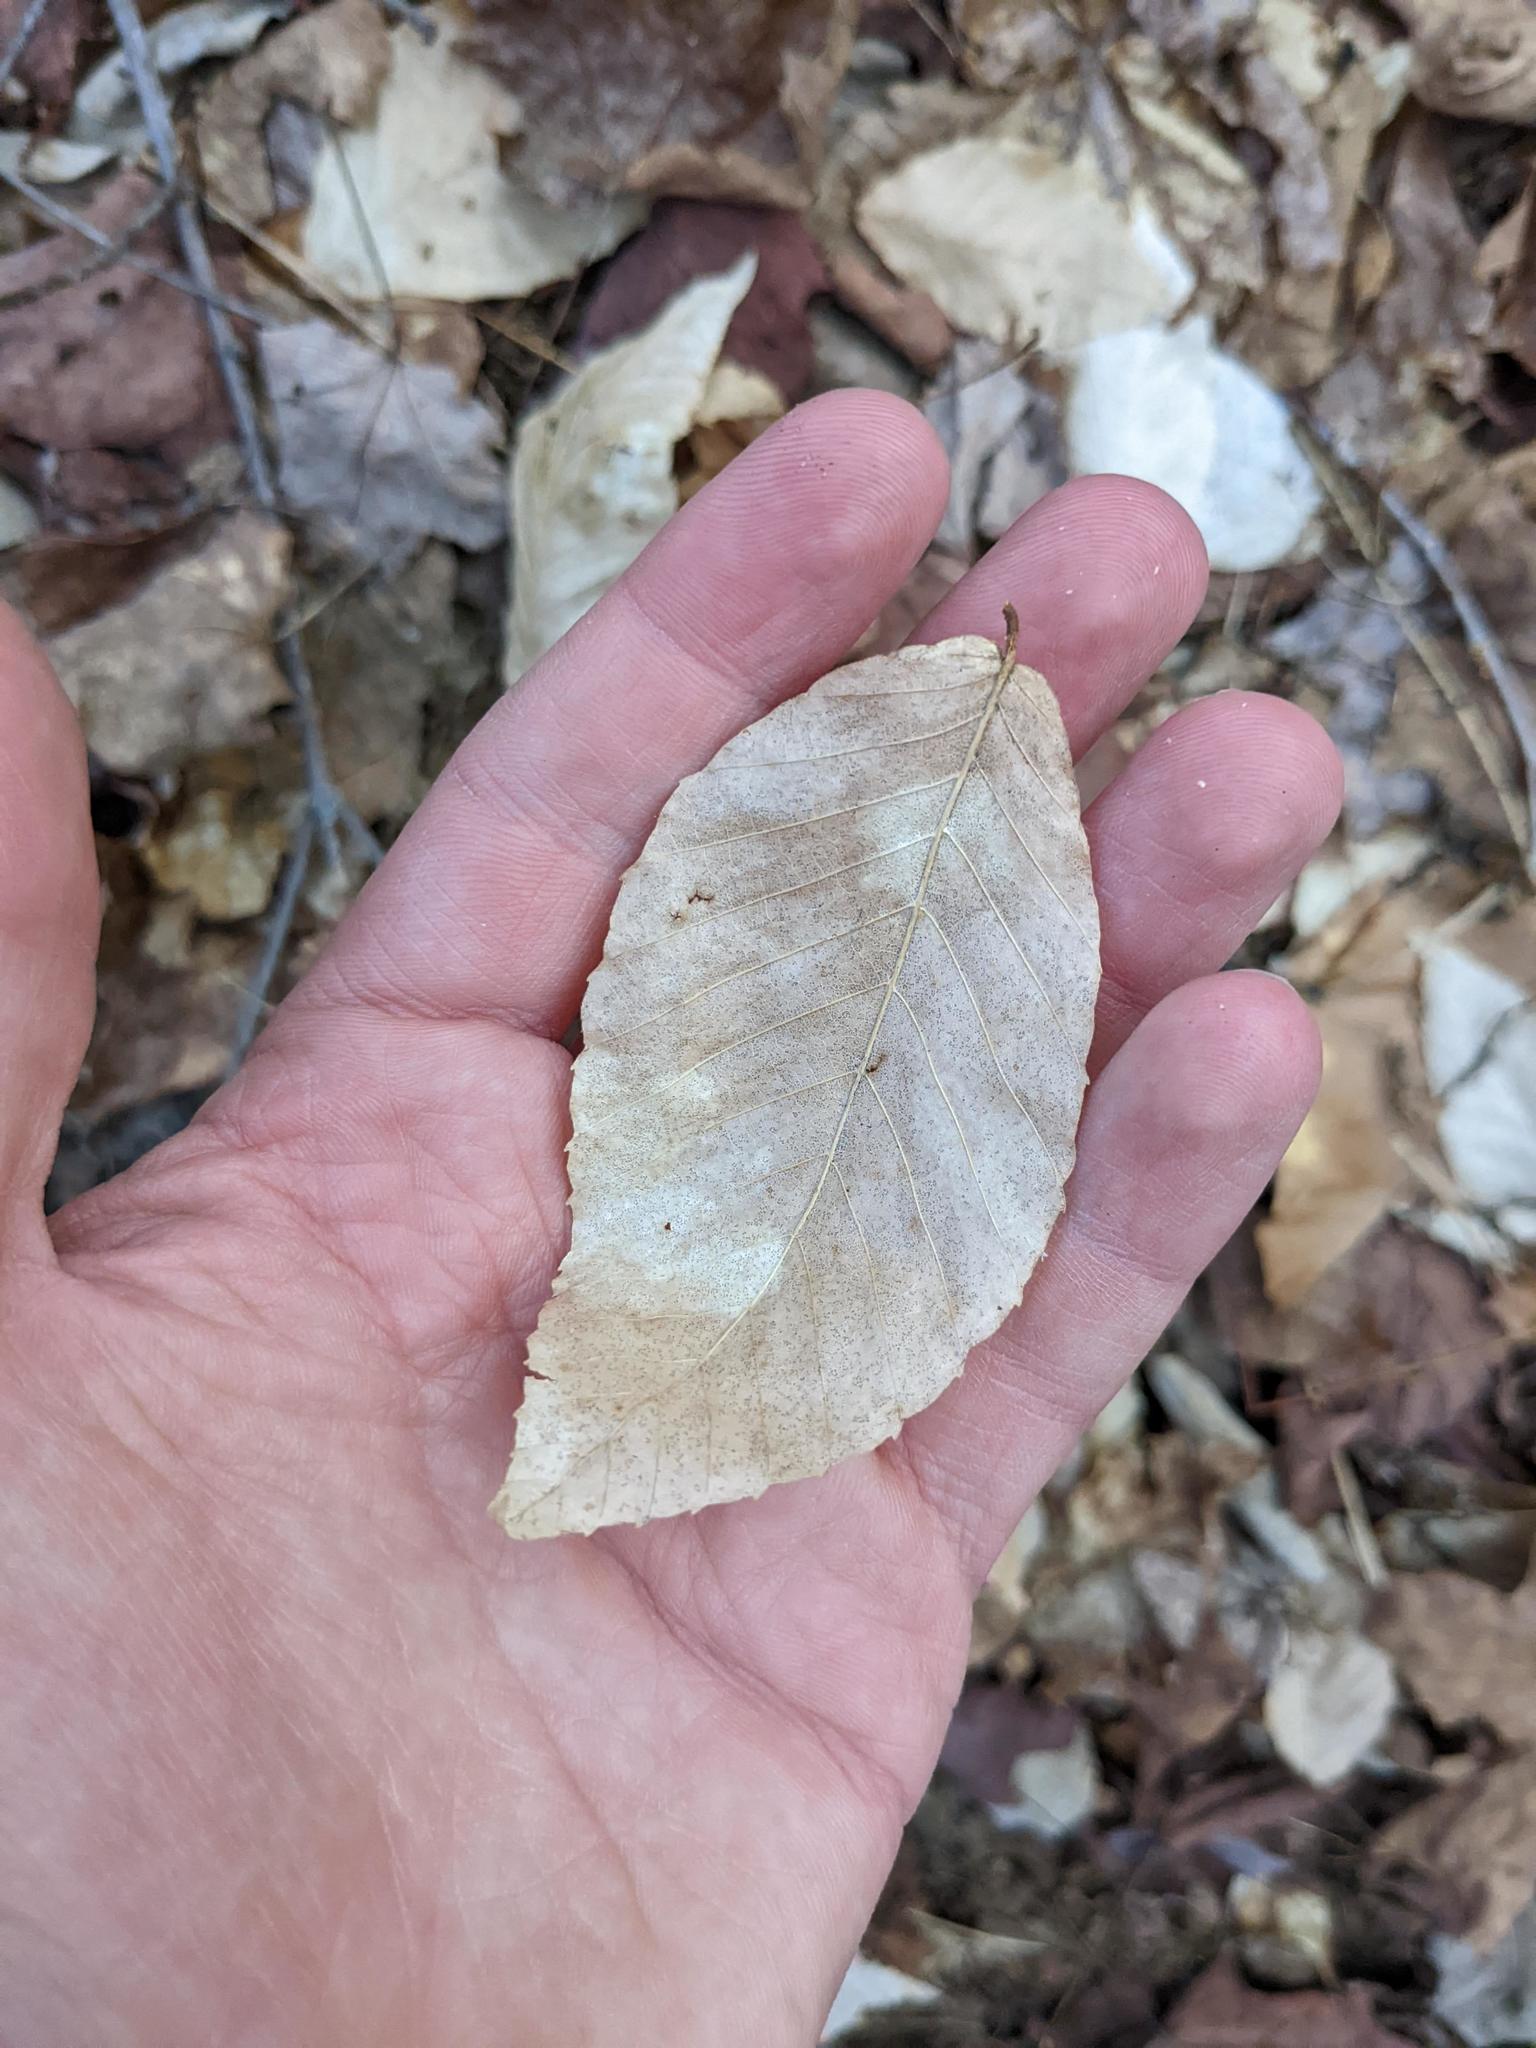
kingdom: Plantae
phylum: Tracheophyta
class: Magnoliopsida
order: Fagales
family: Fagaceae
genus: Fagus
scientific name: Fagus grandifolia
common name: American beech
